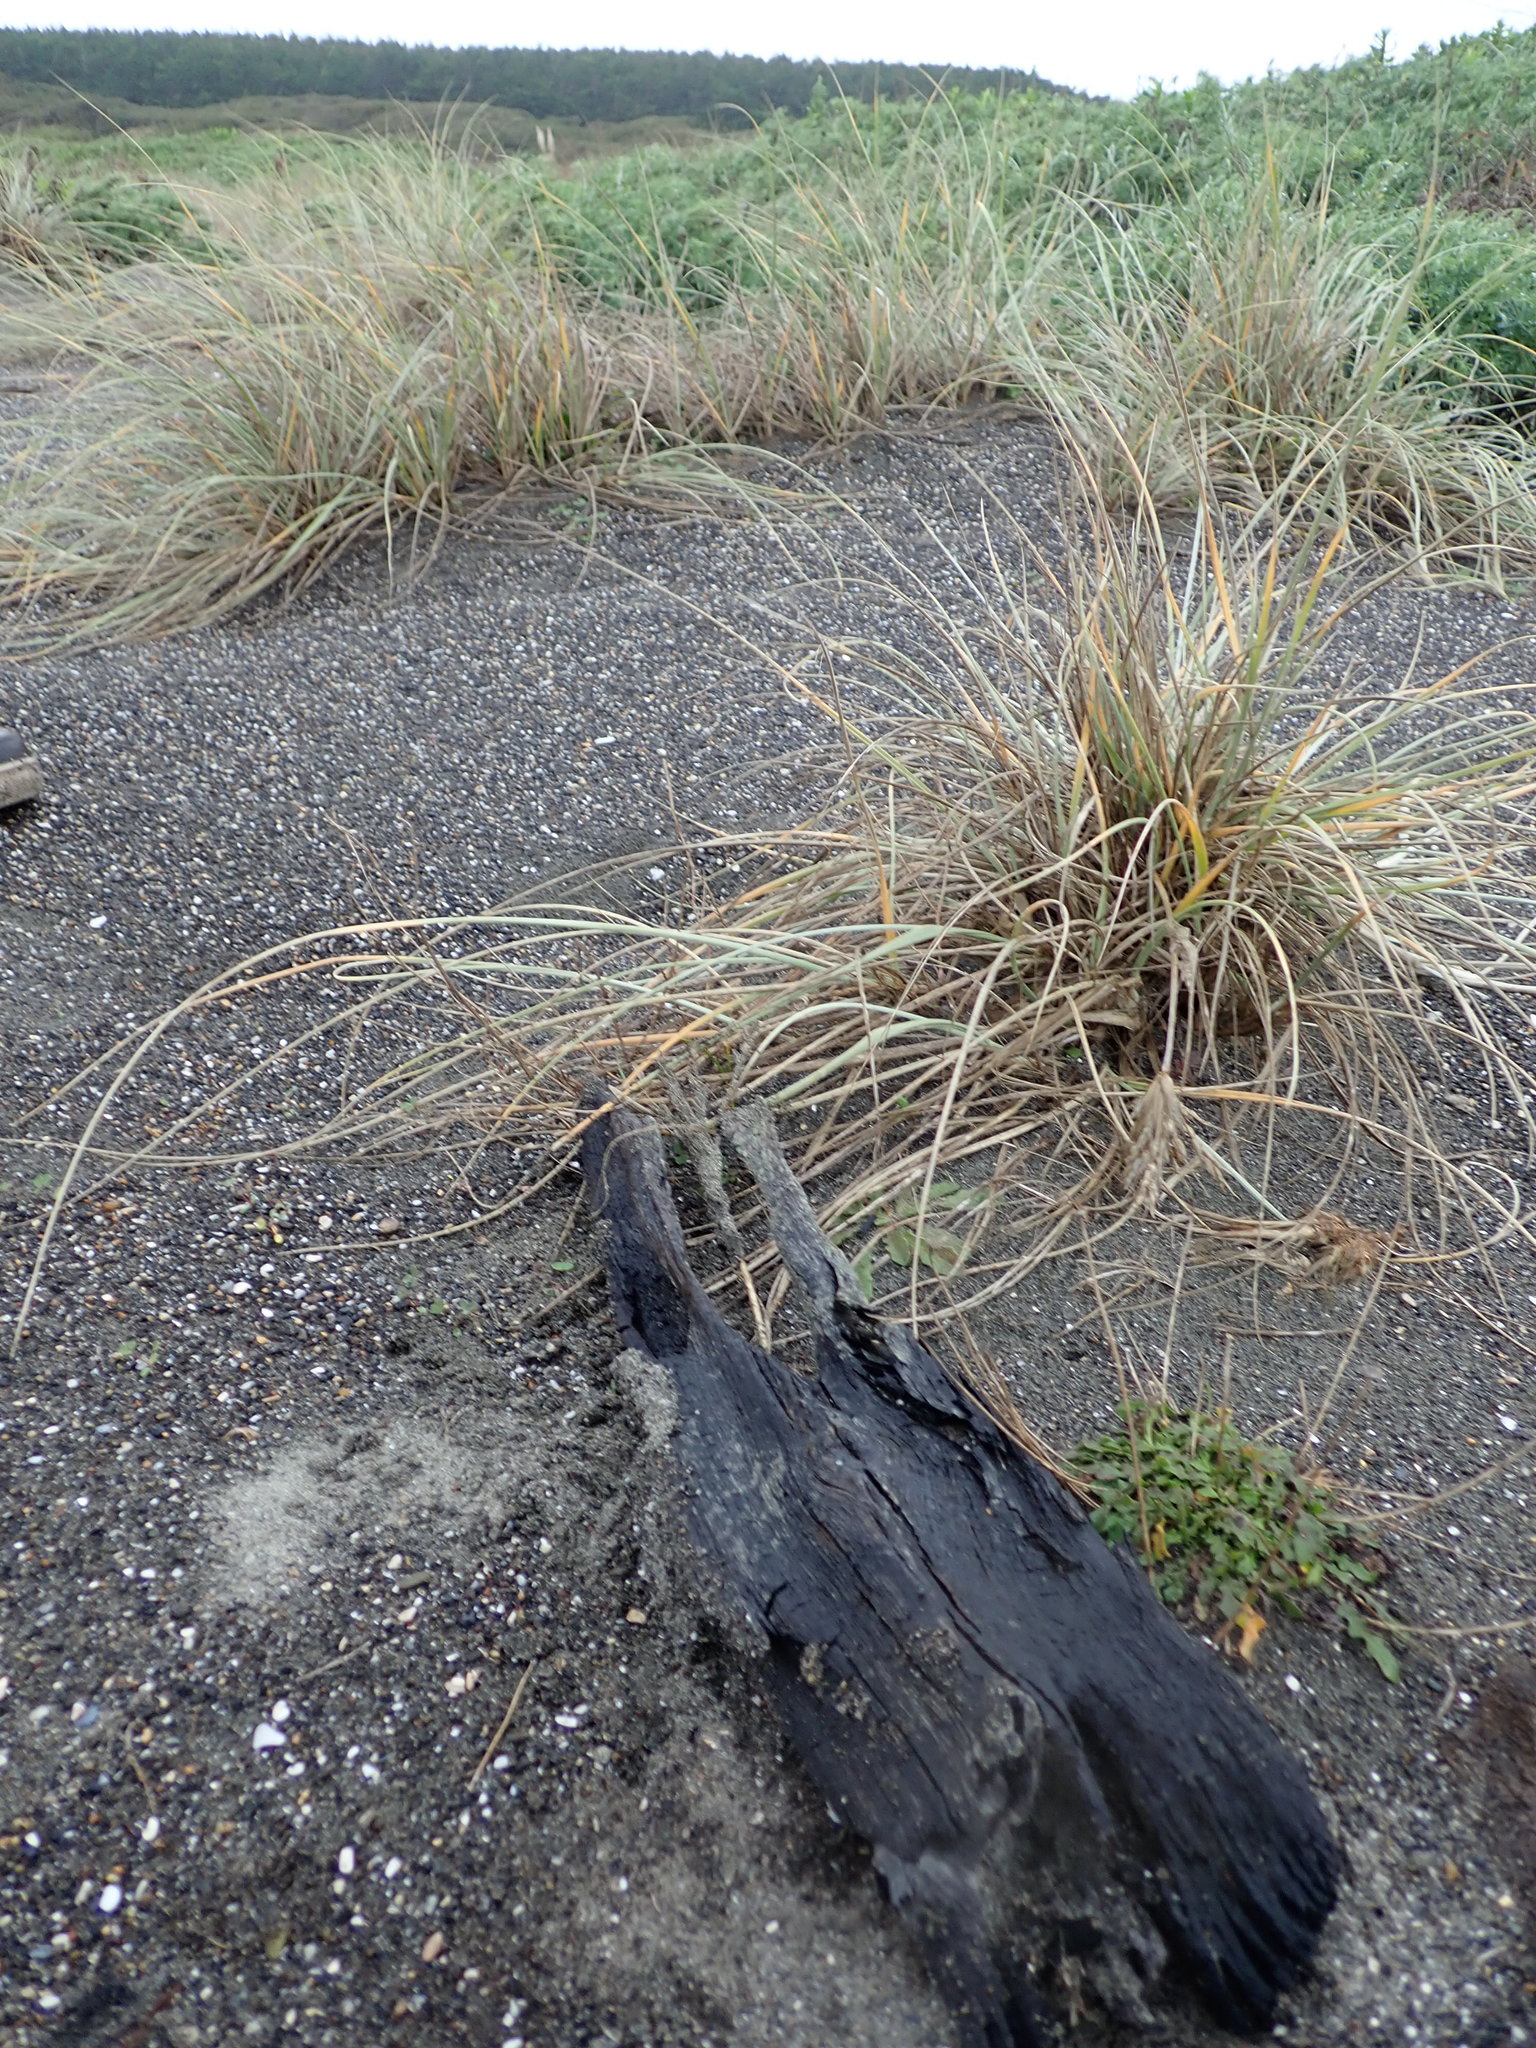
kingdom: Animalia
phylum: Arthropoda
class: Arachnida
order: Araneae
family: Theridiidae
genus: Steatoda
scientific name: Steatoda capensis
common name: Cobweb weaver
